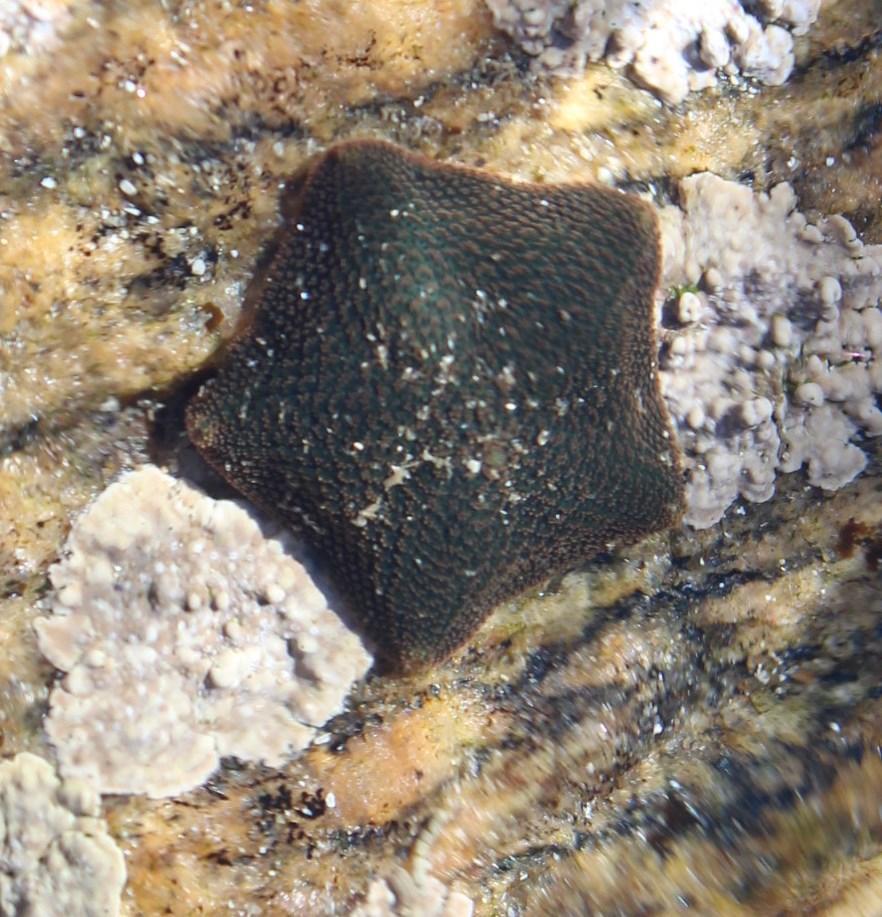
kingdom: Animalia
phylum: Echinodermata
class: Asteroidea
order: Valvatida
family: Asterinidae
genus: Parvulastra
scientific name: Parvulastra exigua
